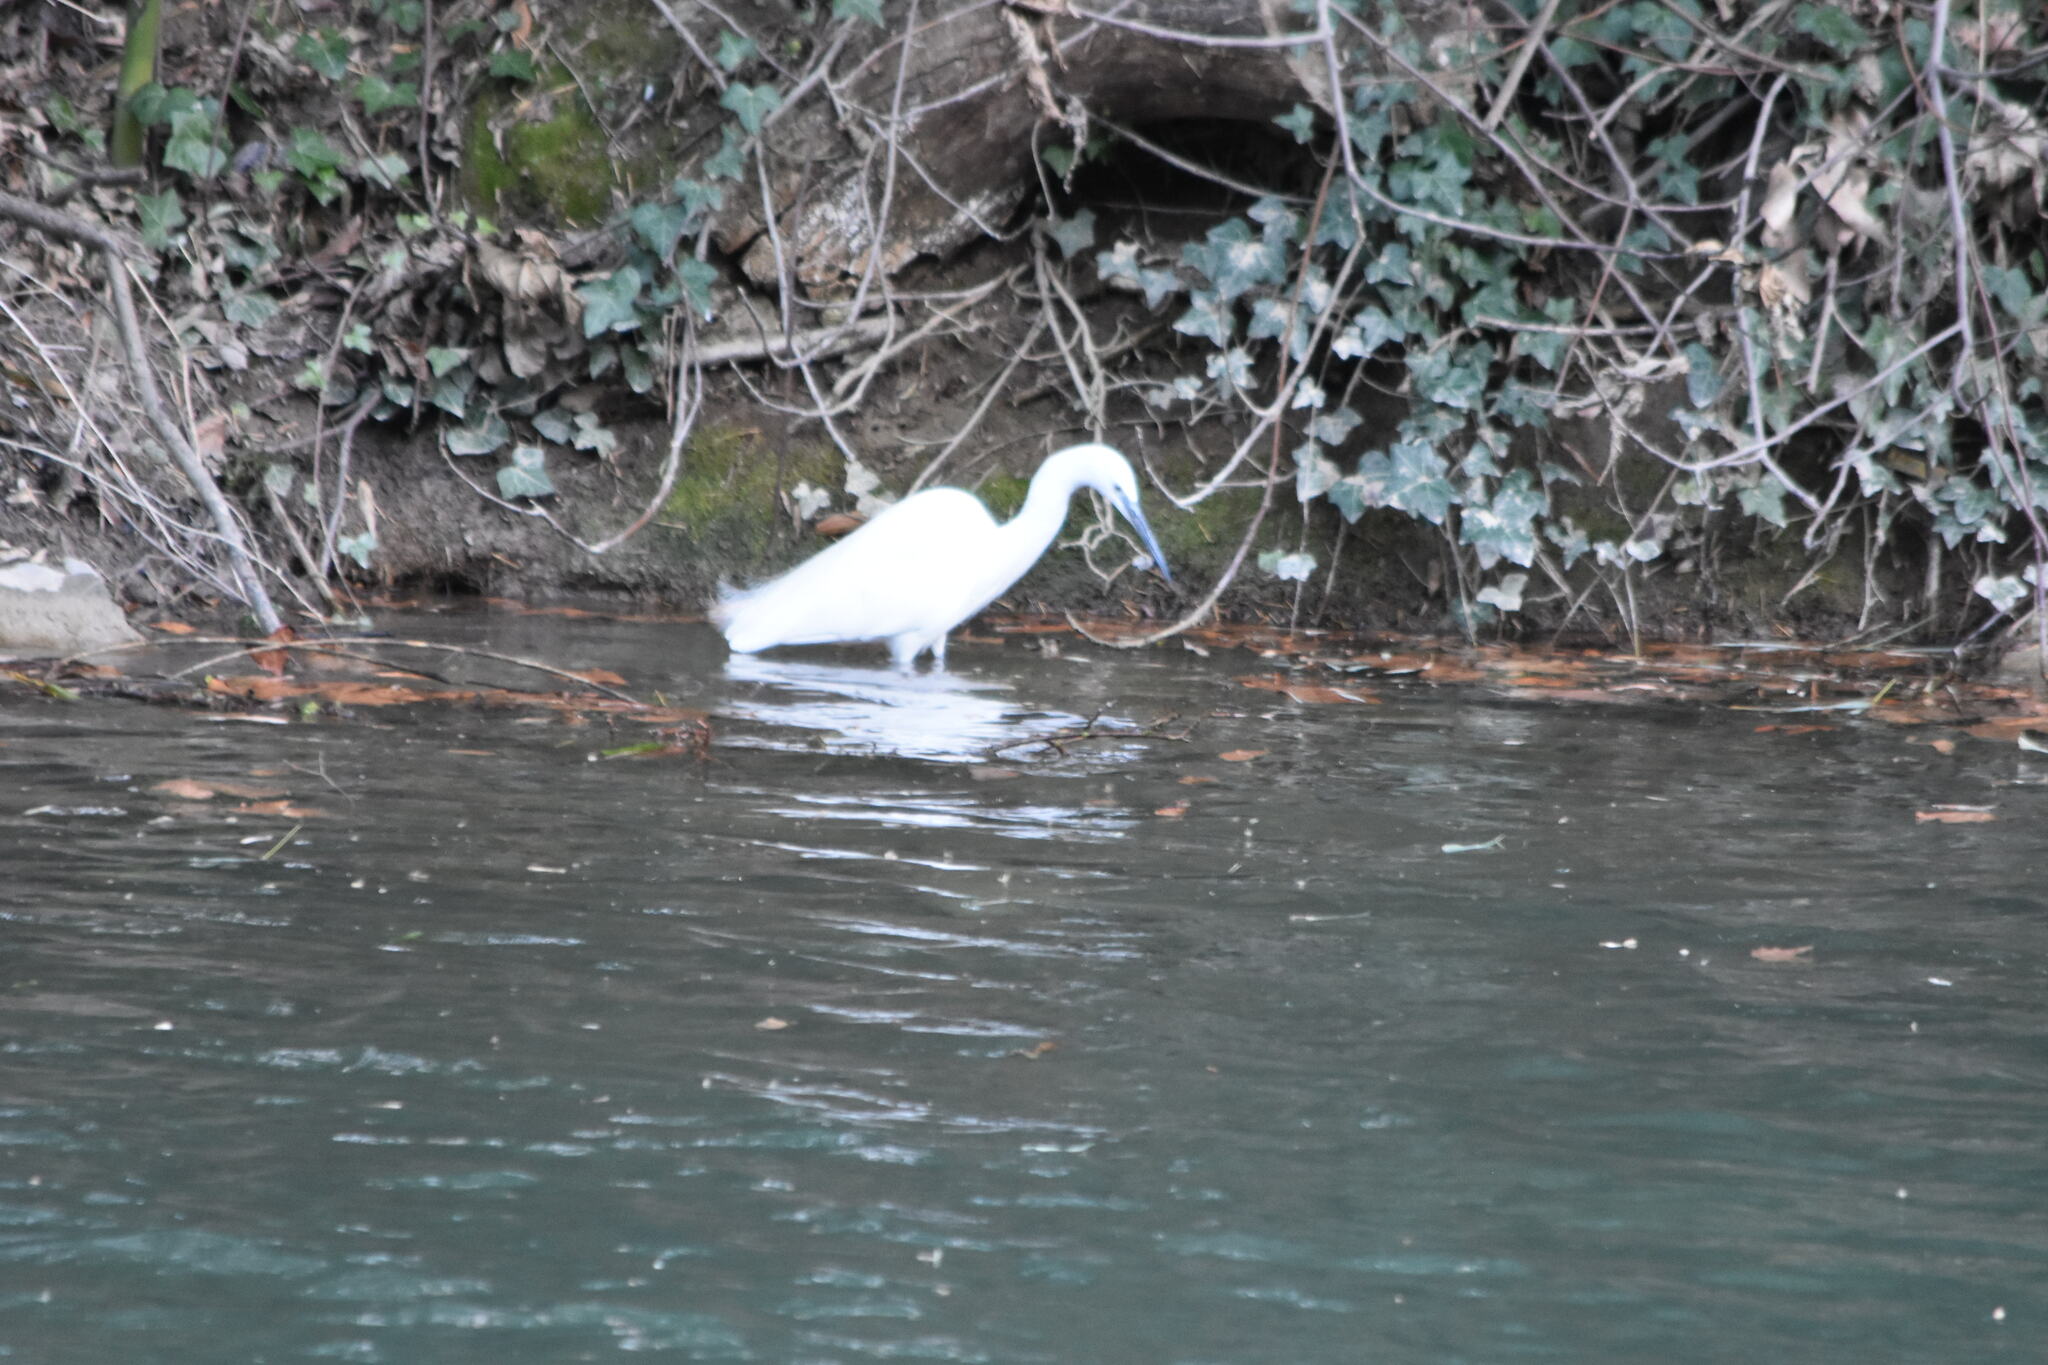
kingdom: Animalia
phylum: Chordata
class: Aves
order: Pelecaniformes
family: Ardeidae
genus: Egretta
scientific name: Egretta garzetta
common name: Little egret
